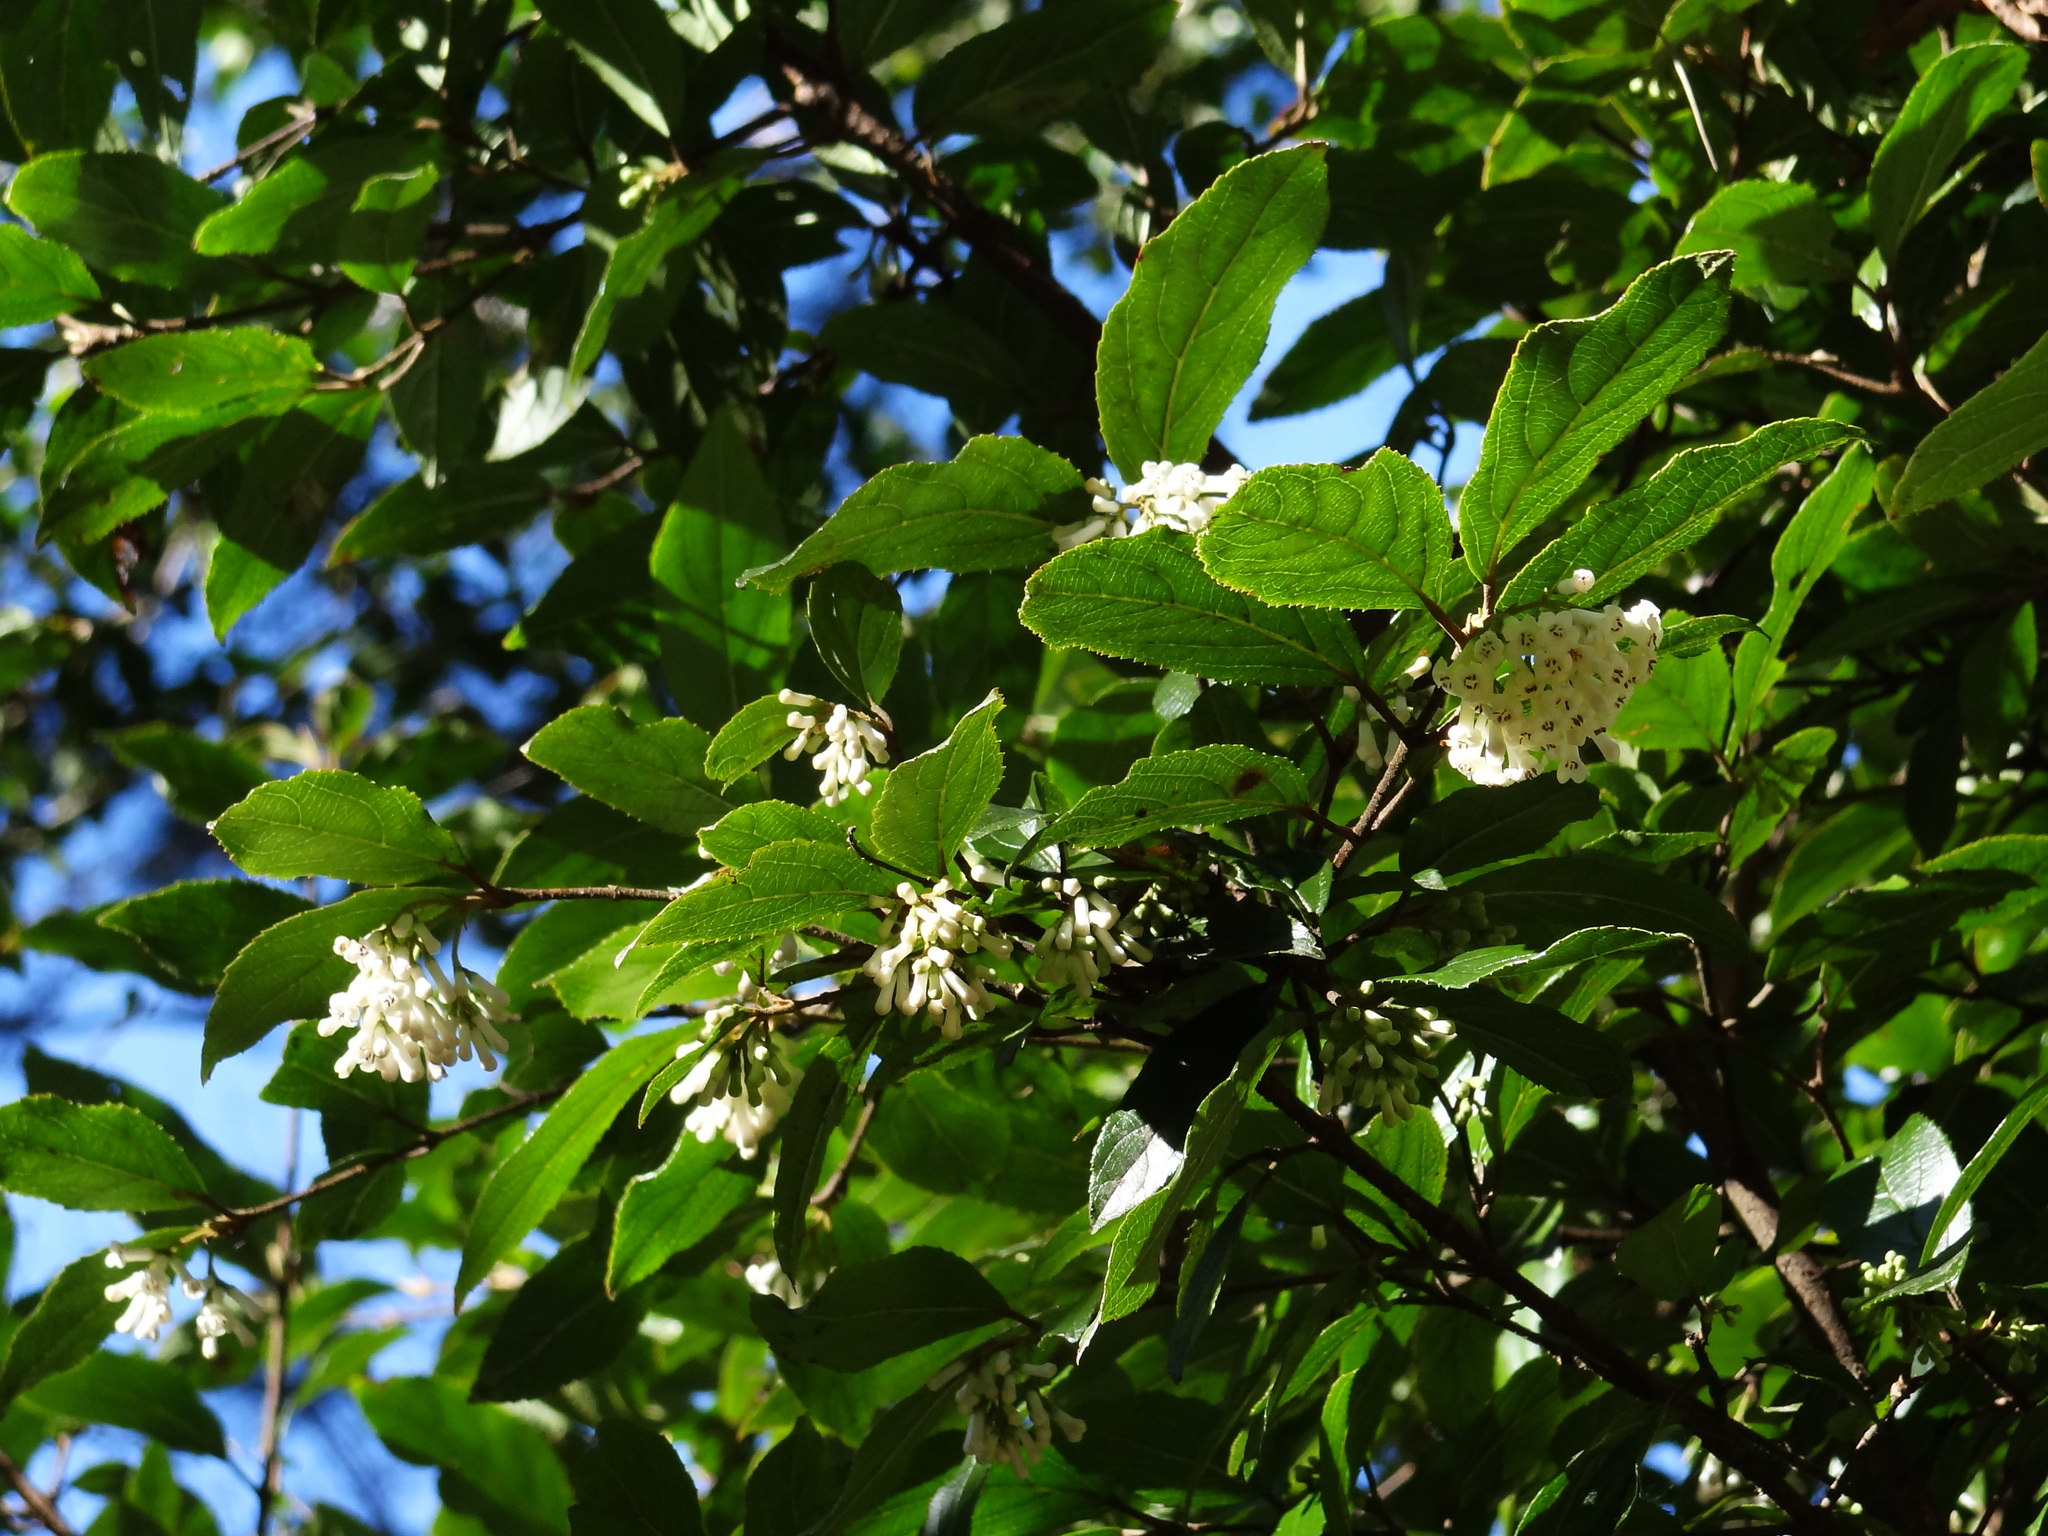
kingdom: Plantae
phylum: Tracheophyta
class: Magnoliopsida
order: Dipsacales
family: Viburnaceae
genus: Viburnum
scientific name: Viburnum taitoense
